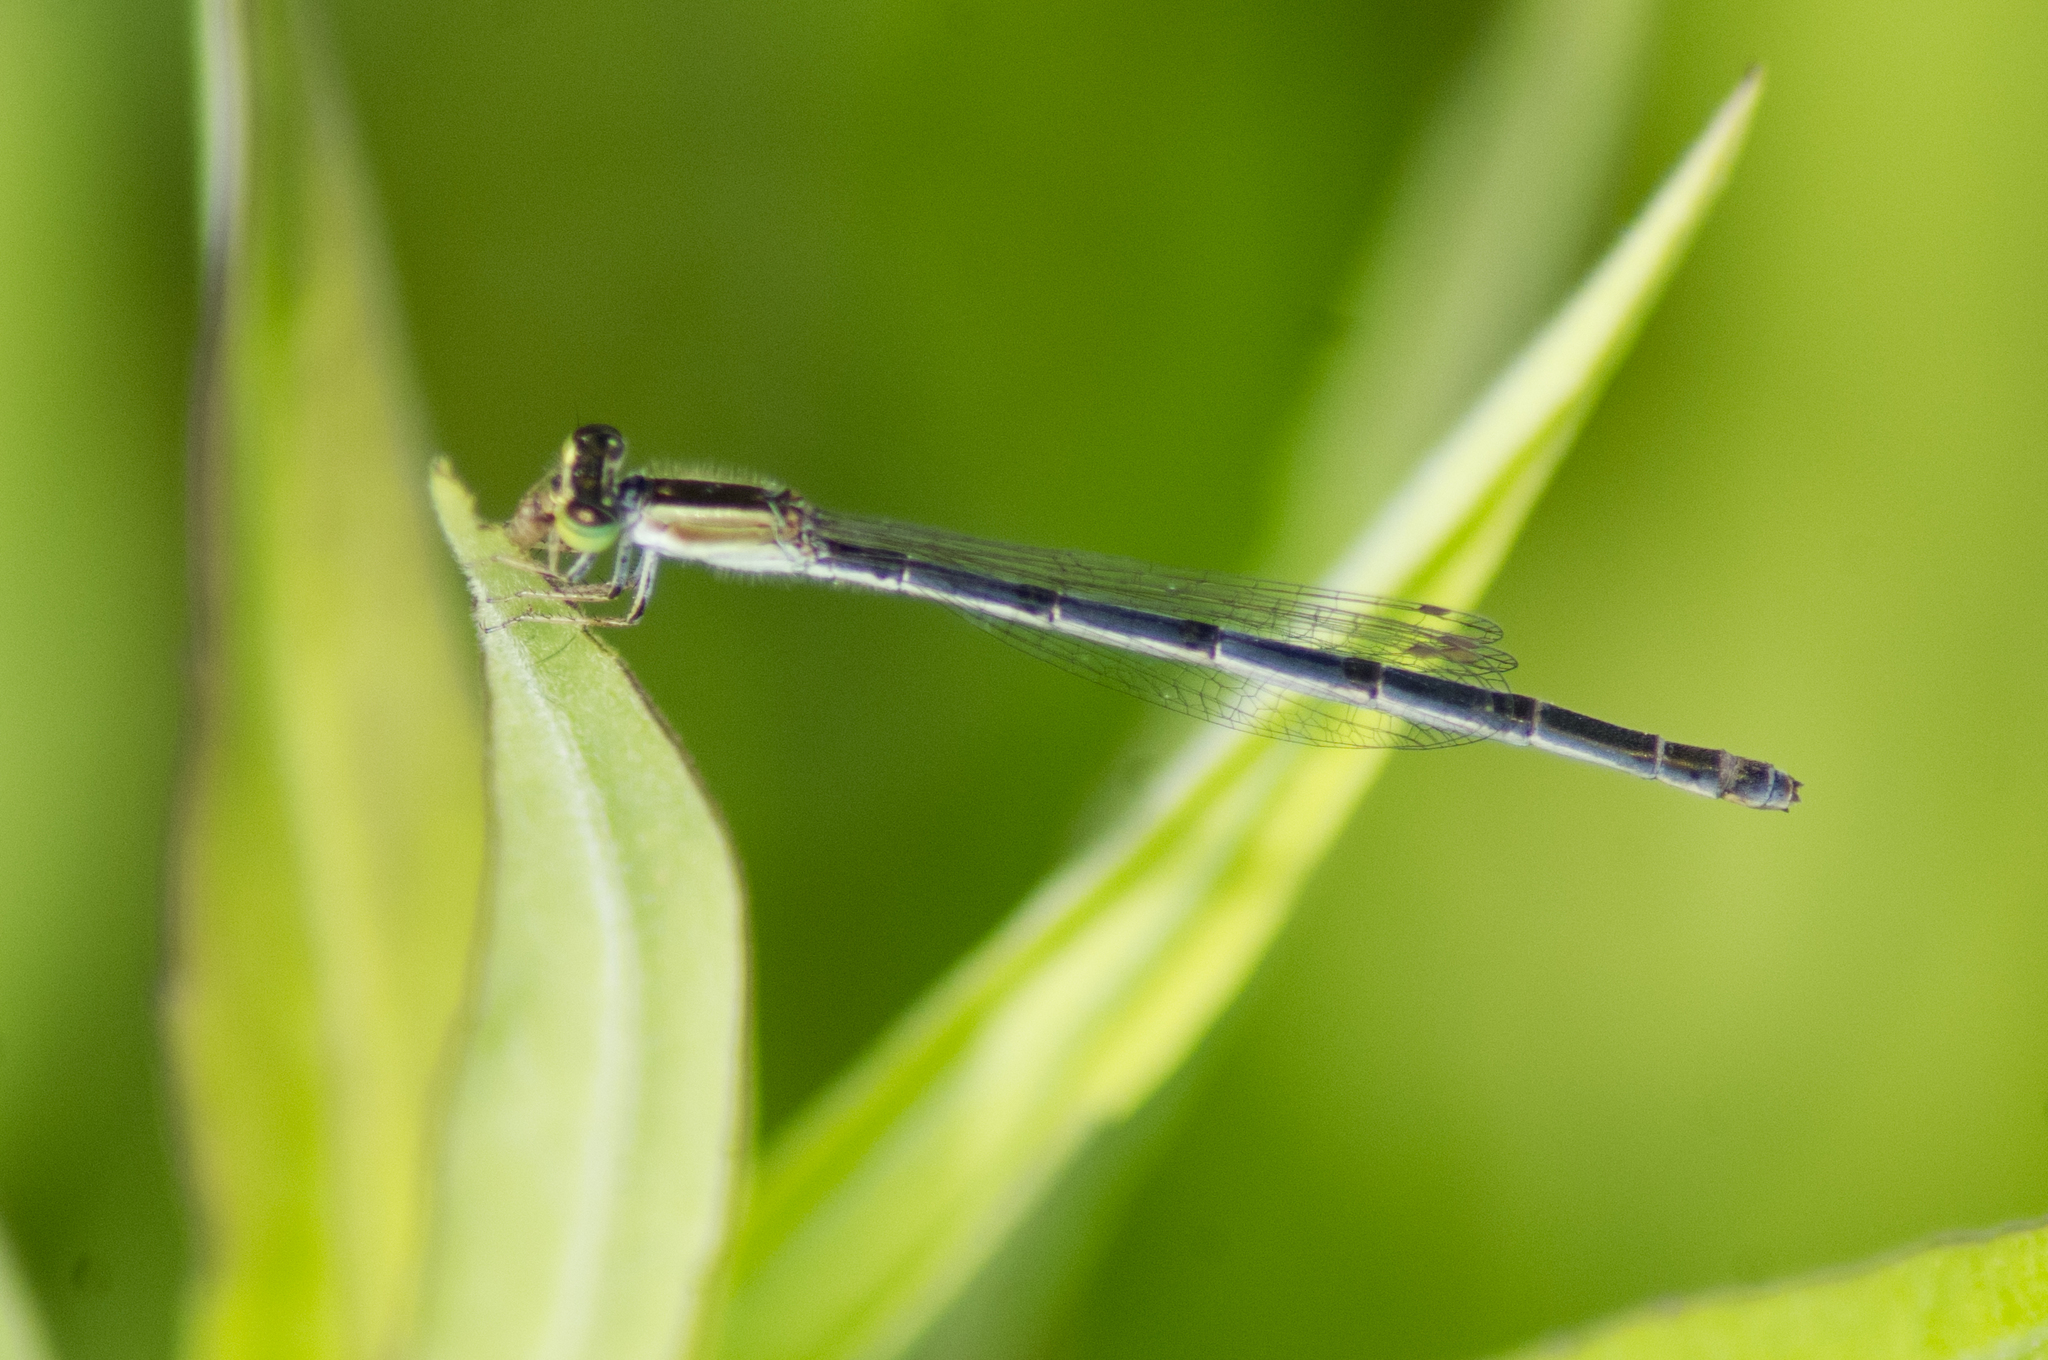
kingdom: Animalia
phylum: Arthropoda
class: Insecta
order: Odonata
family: Coenagrionidae
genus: Ischnura
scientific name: Ischnura hastata
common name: Citrine forktail
